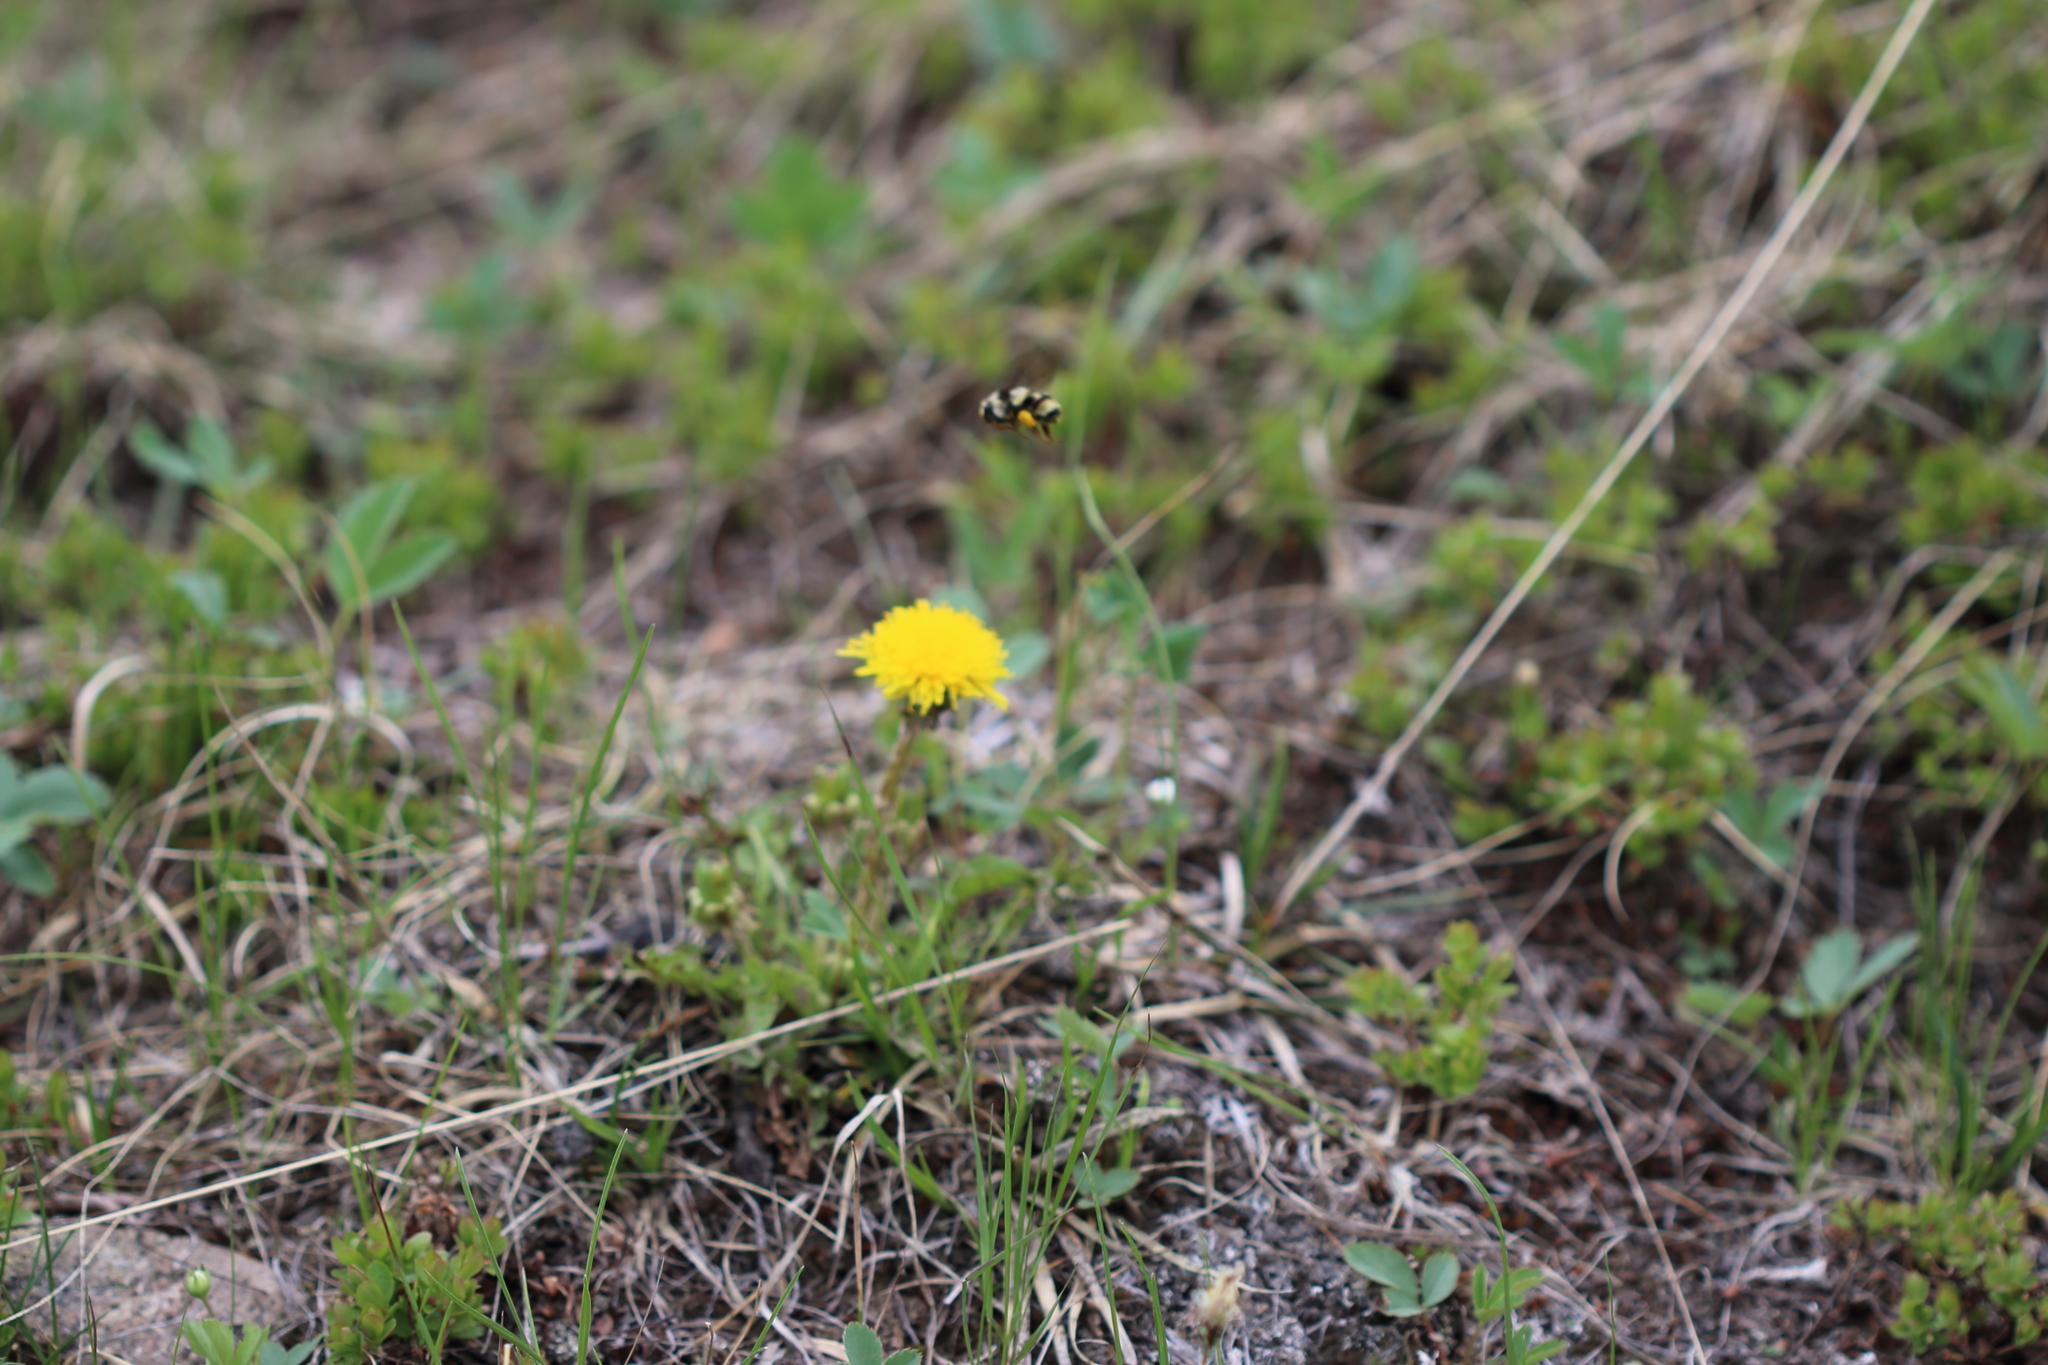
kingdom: Animalia
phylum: Arthropoda
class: Insecta
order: Hymenoptera
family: Apidae
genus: Bombus
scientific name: Bombus vancouverensis
